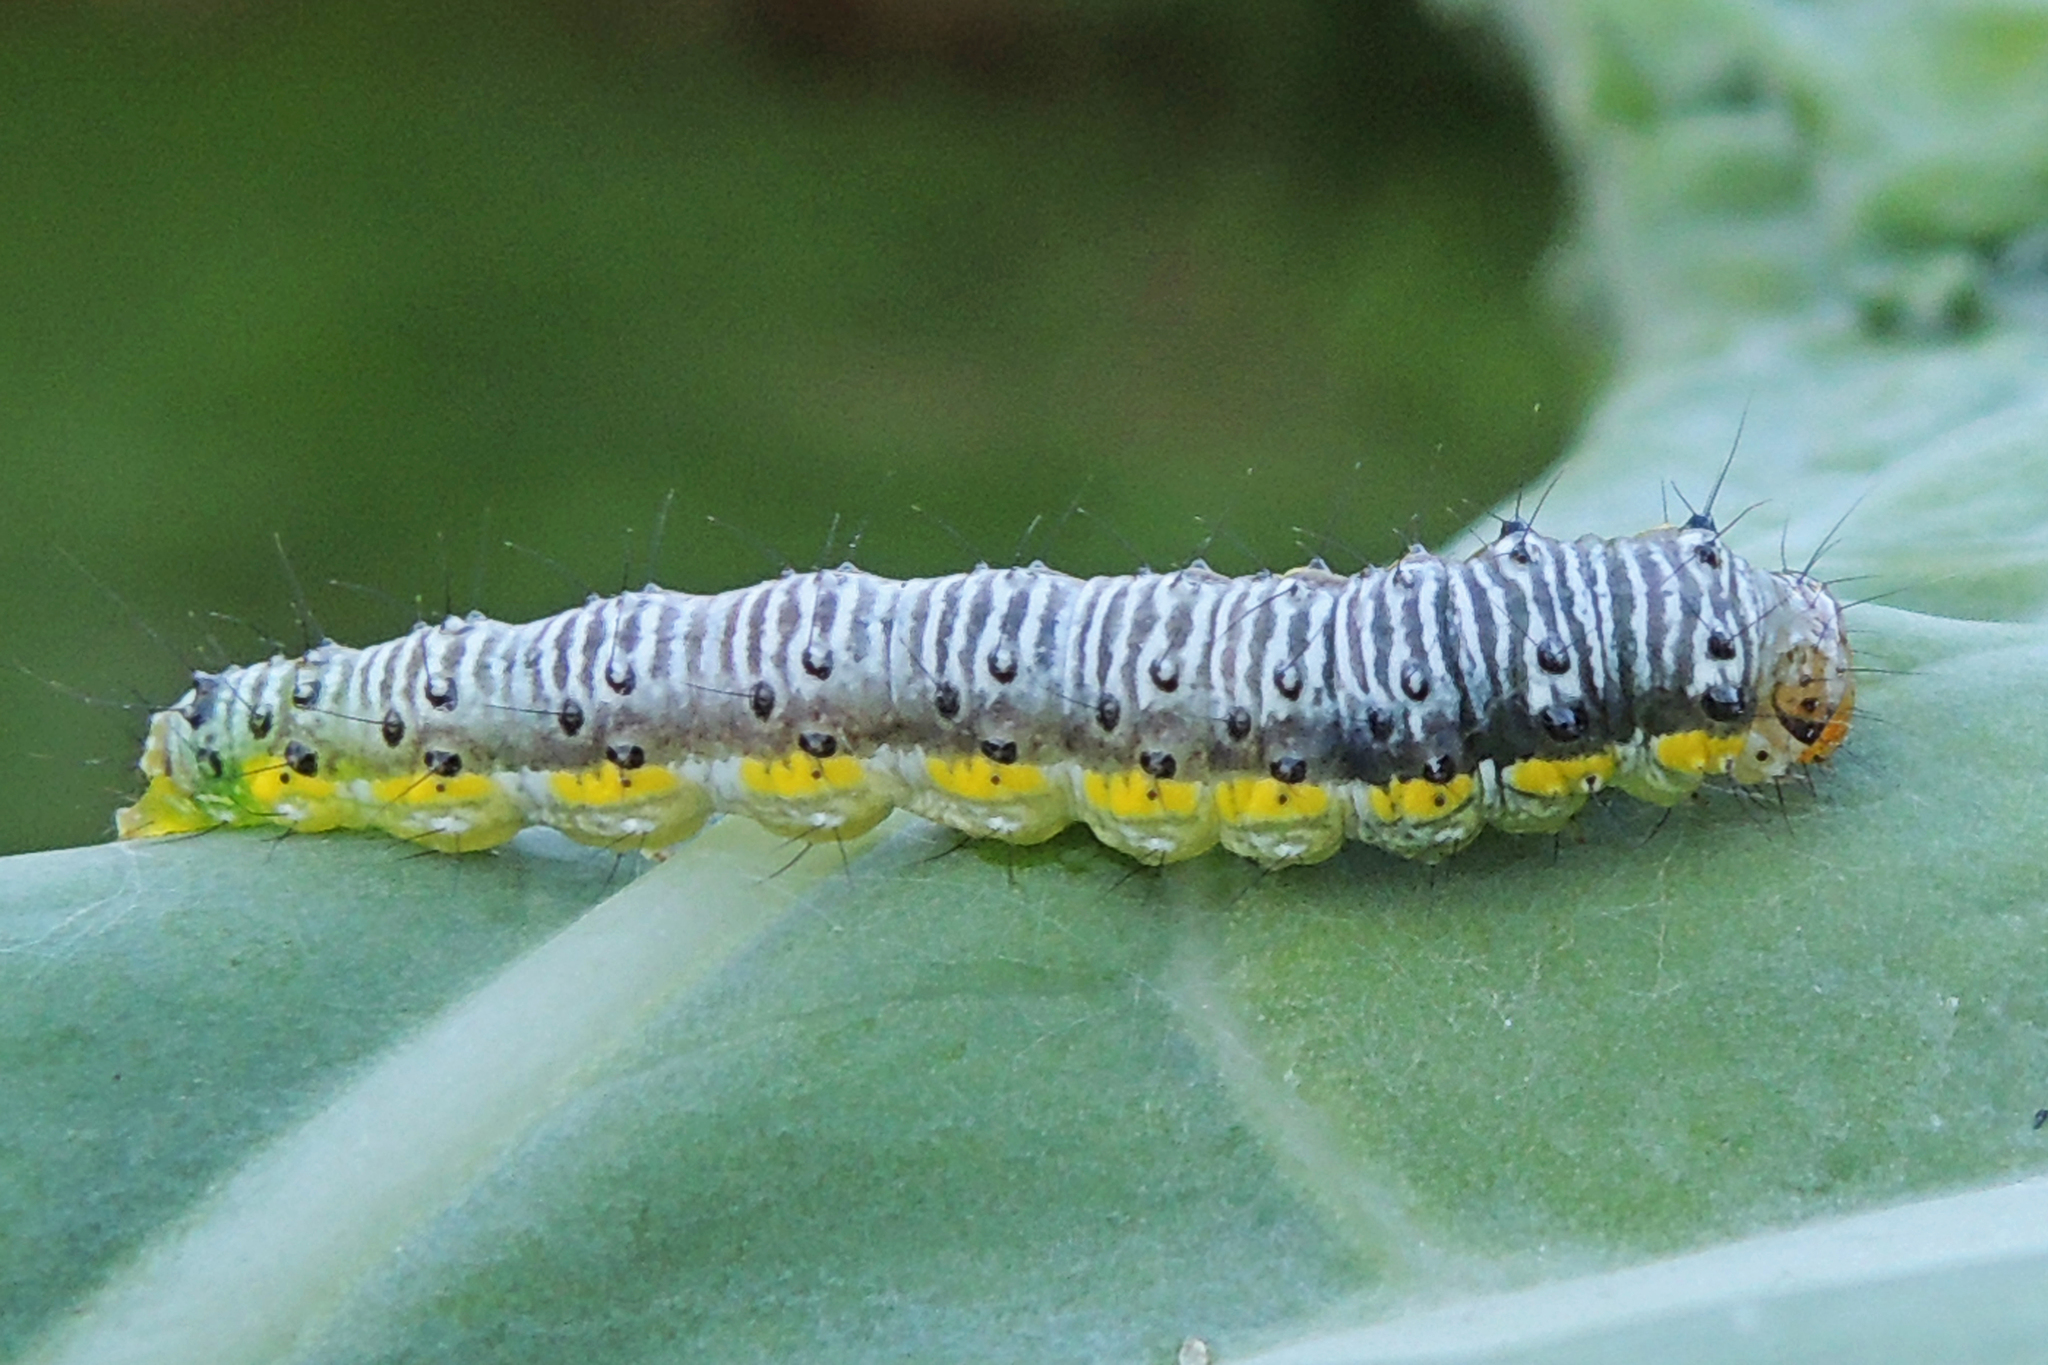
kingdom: Animalia
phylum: Arthropoda
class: Insecta
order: Lepidoptera
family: Crambidae
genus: Evergestis
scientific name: Evergestis rimosalis
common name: Cross-striped cabbageworm moth
